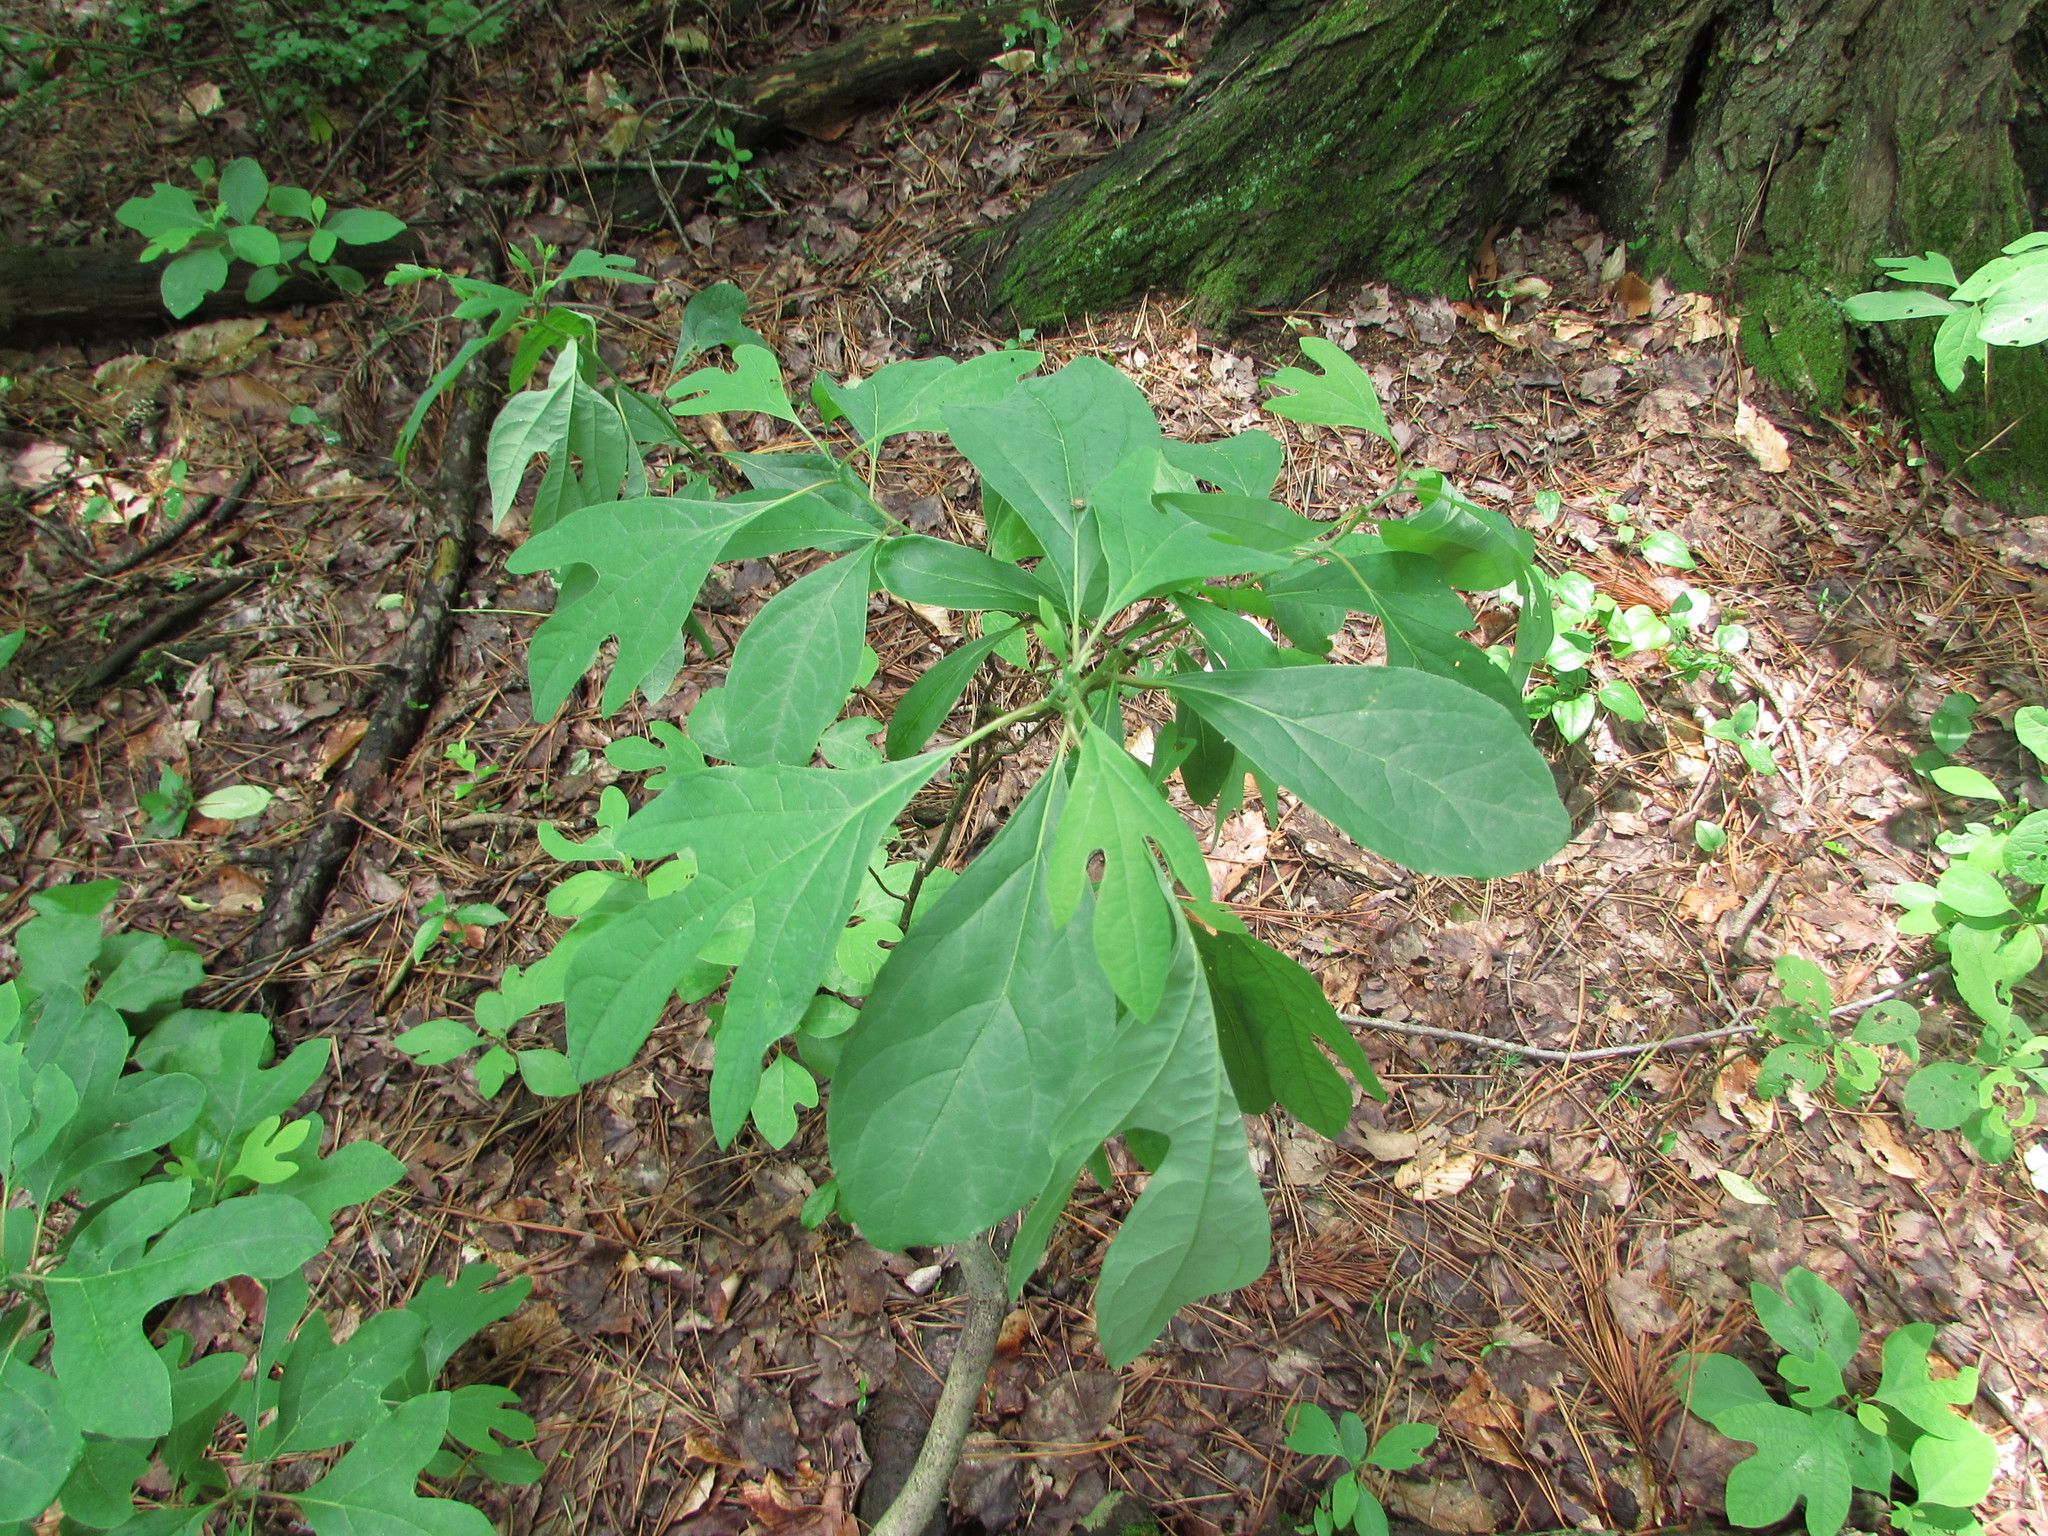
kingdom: Plantae
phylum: Tracheophyta
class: Magnoliopsida
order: Laurales
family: Lauraceae
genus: Sassafras
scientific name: Sassafras albidum
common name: Sassafras
